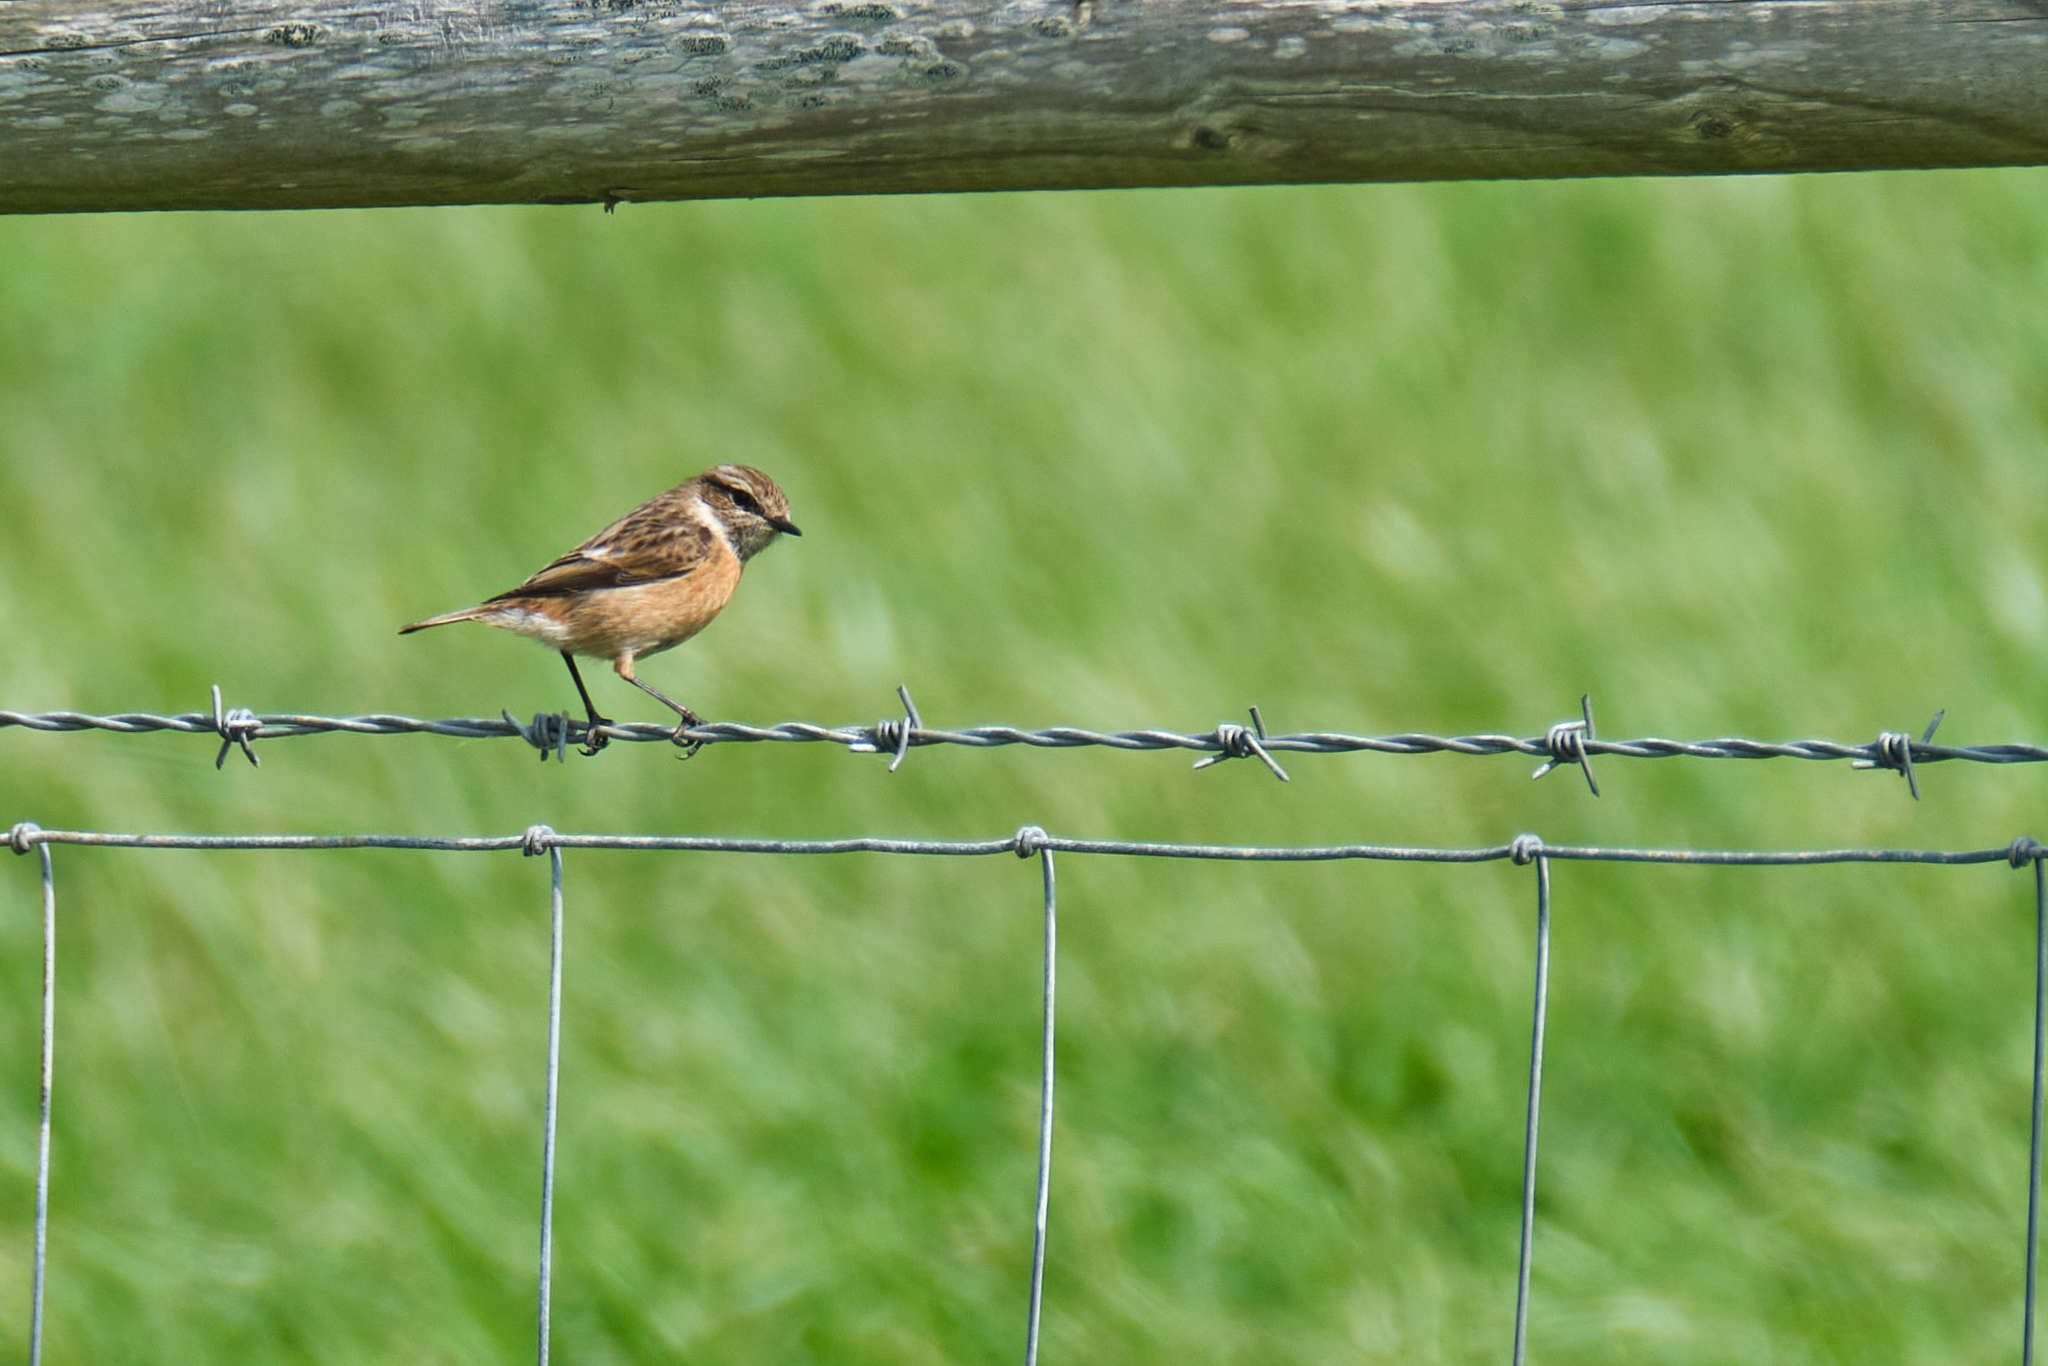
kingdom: Animalia
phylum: Chordata
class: Aves
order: Passeriformes
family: Muscicapidae
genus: Saxicola
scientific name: Saxicola rubicola
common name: European stonechat
